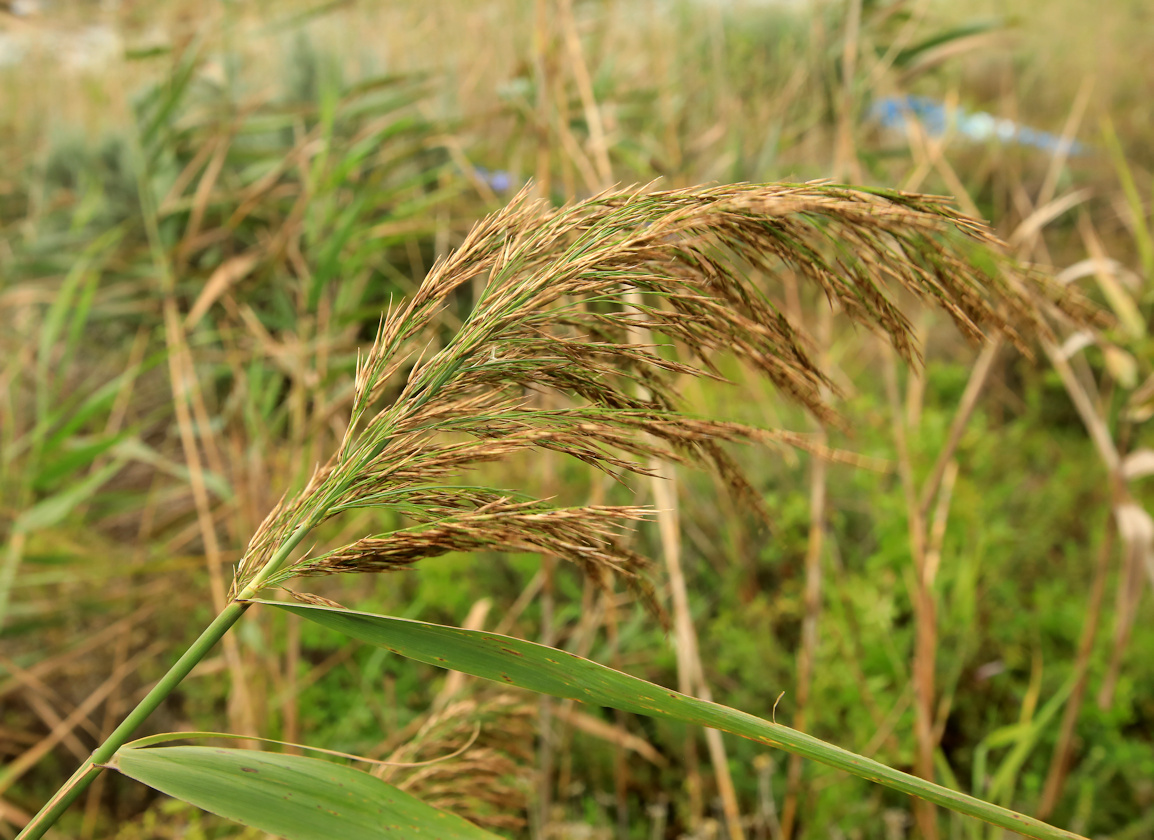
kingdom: Plantae
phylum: Tracheophyta
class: Liliopsida
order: Poales
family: Poaceae
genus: Phragmites
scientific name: Phragmites australis
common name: Common reed
